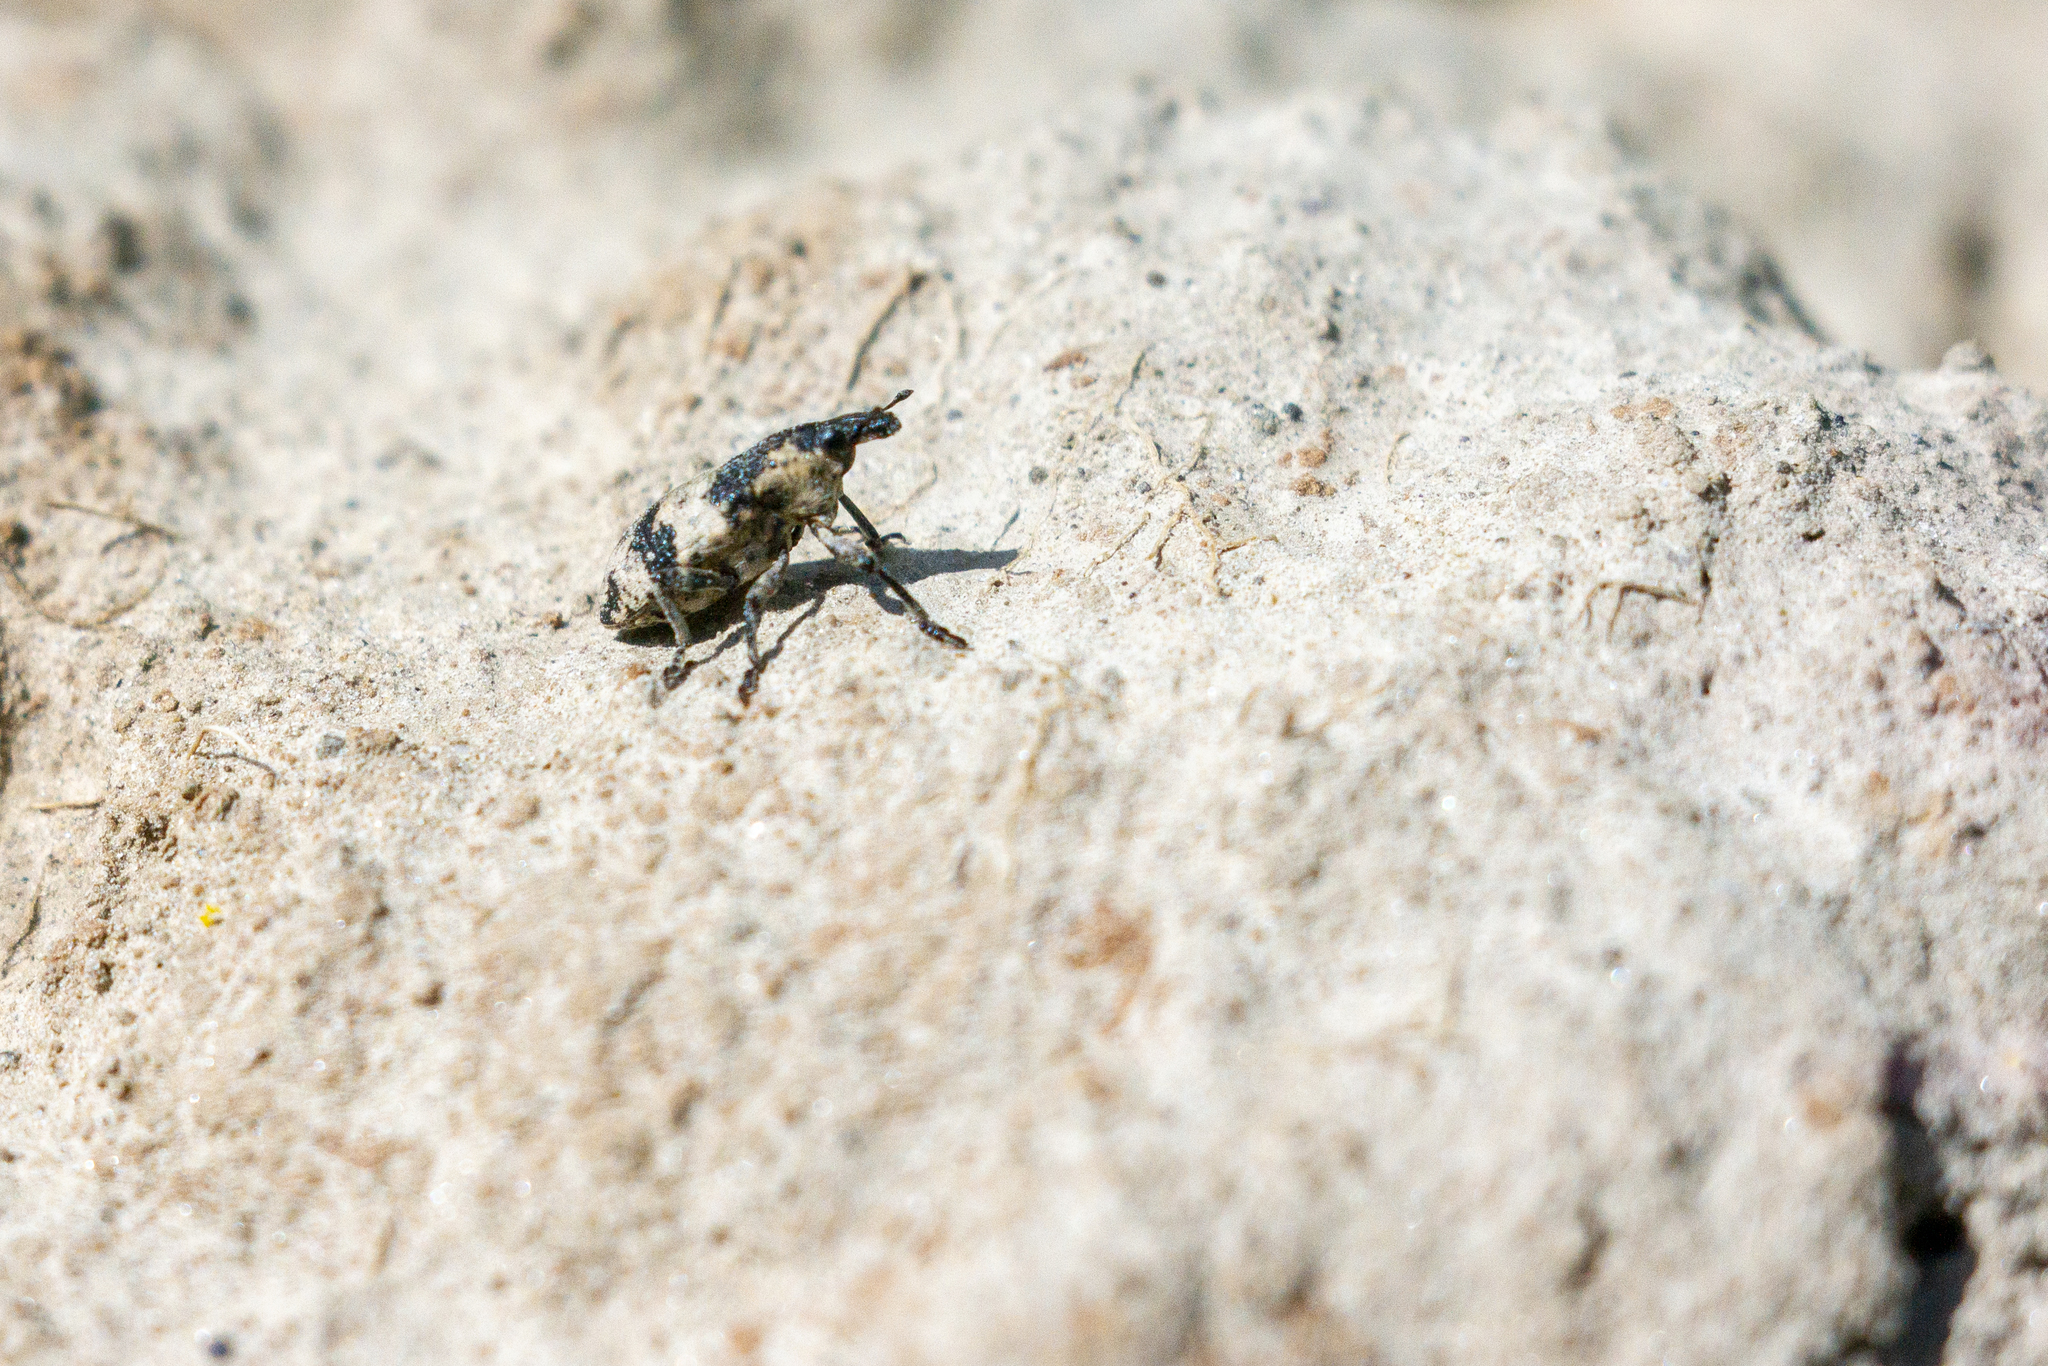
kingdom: Animalia
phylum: Arthropoda
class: Insecta
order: Coleoptera
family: Curculionidae
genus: Bothynoderes
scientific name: Bothynoderes affinis
